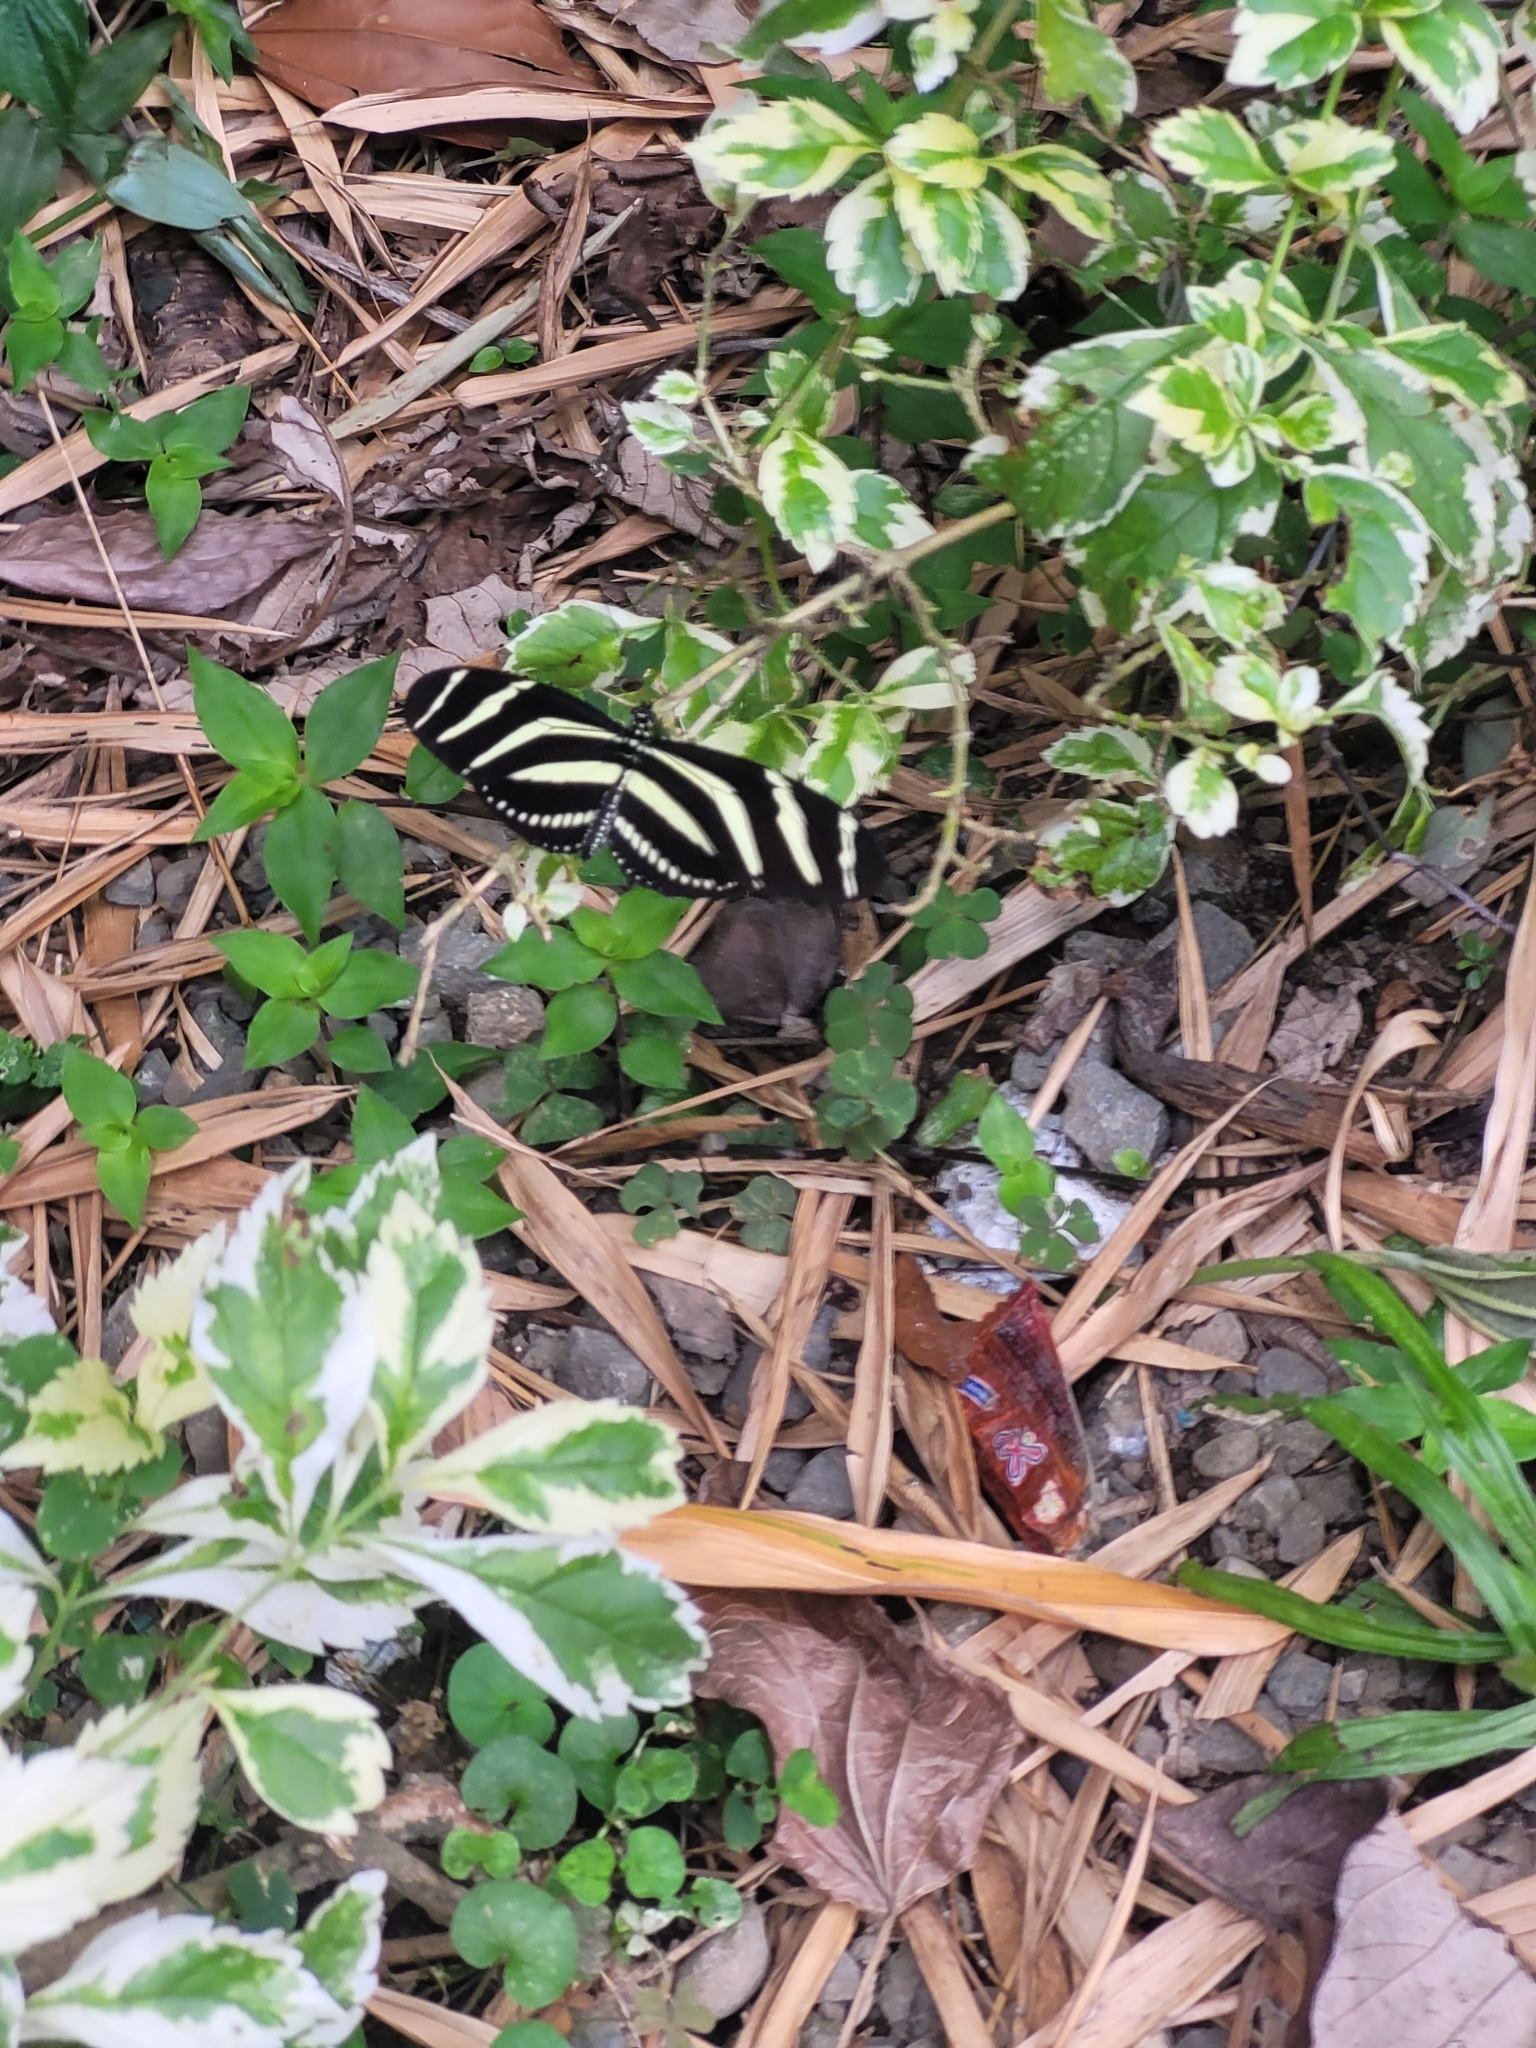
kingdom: Animalia
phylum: Arthropoda
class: Insecta
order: Lepidoptera
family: Nymphalidae
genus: Heliconius
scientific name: Heliconius charithonia
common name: Zebra long wing
